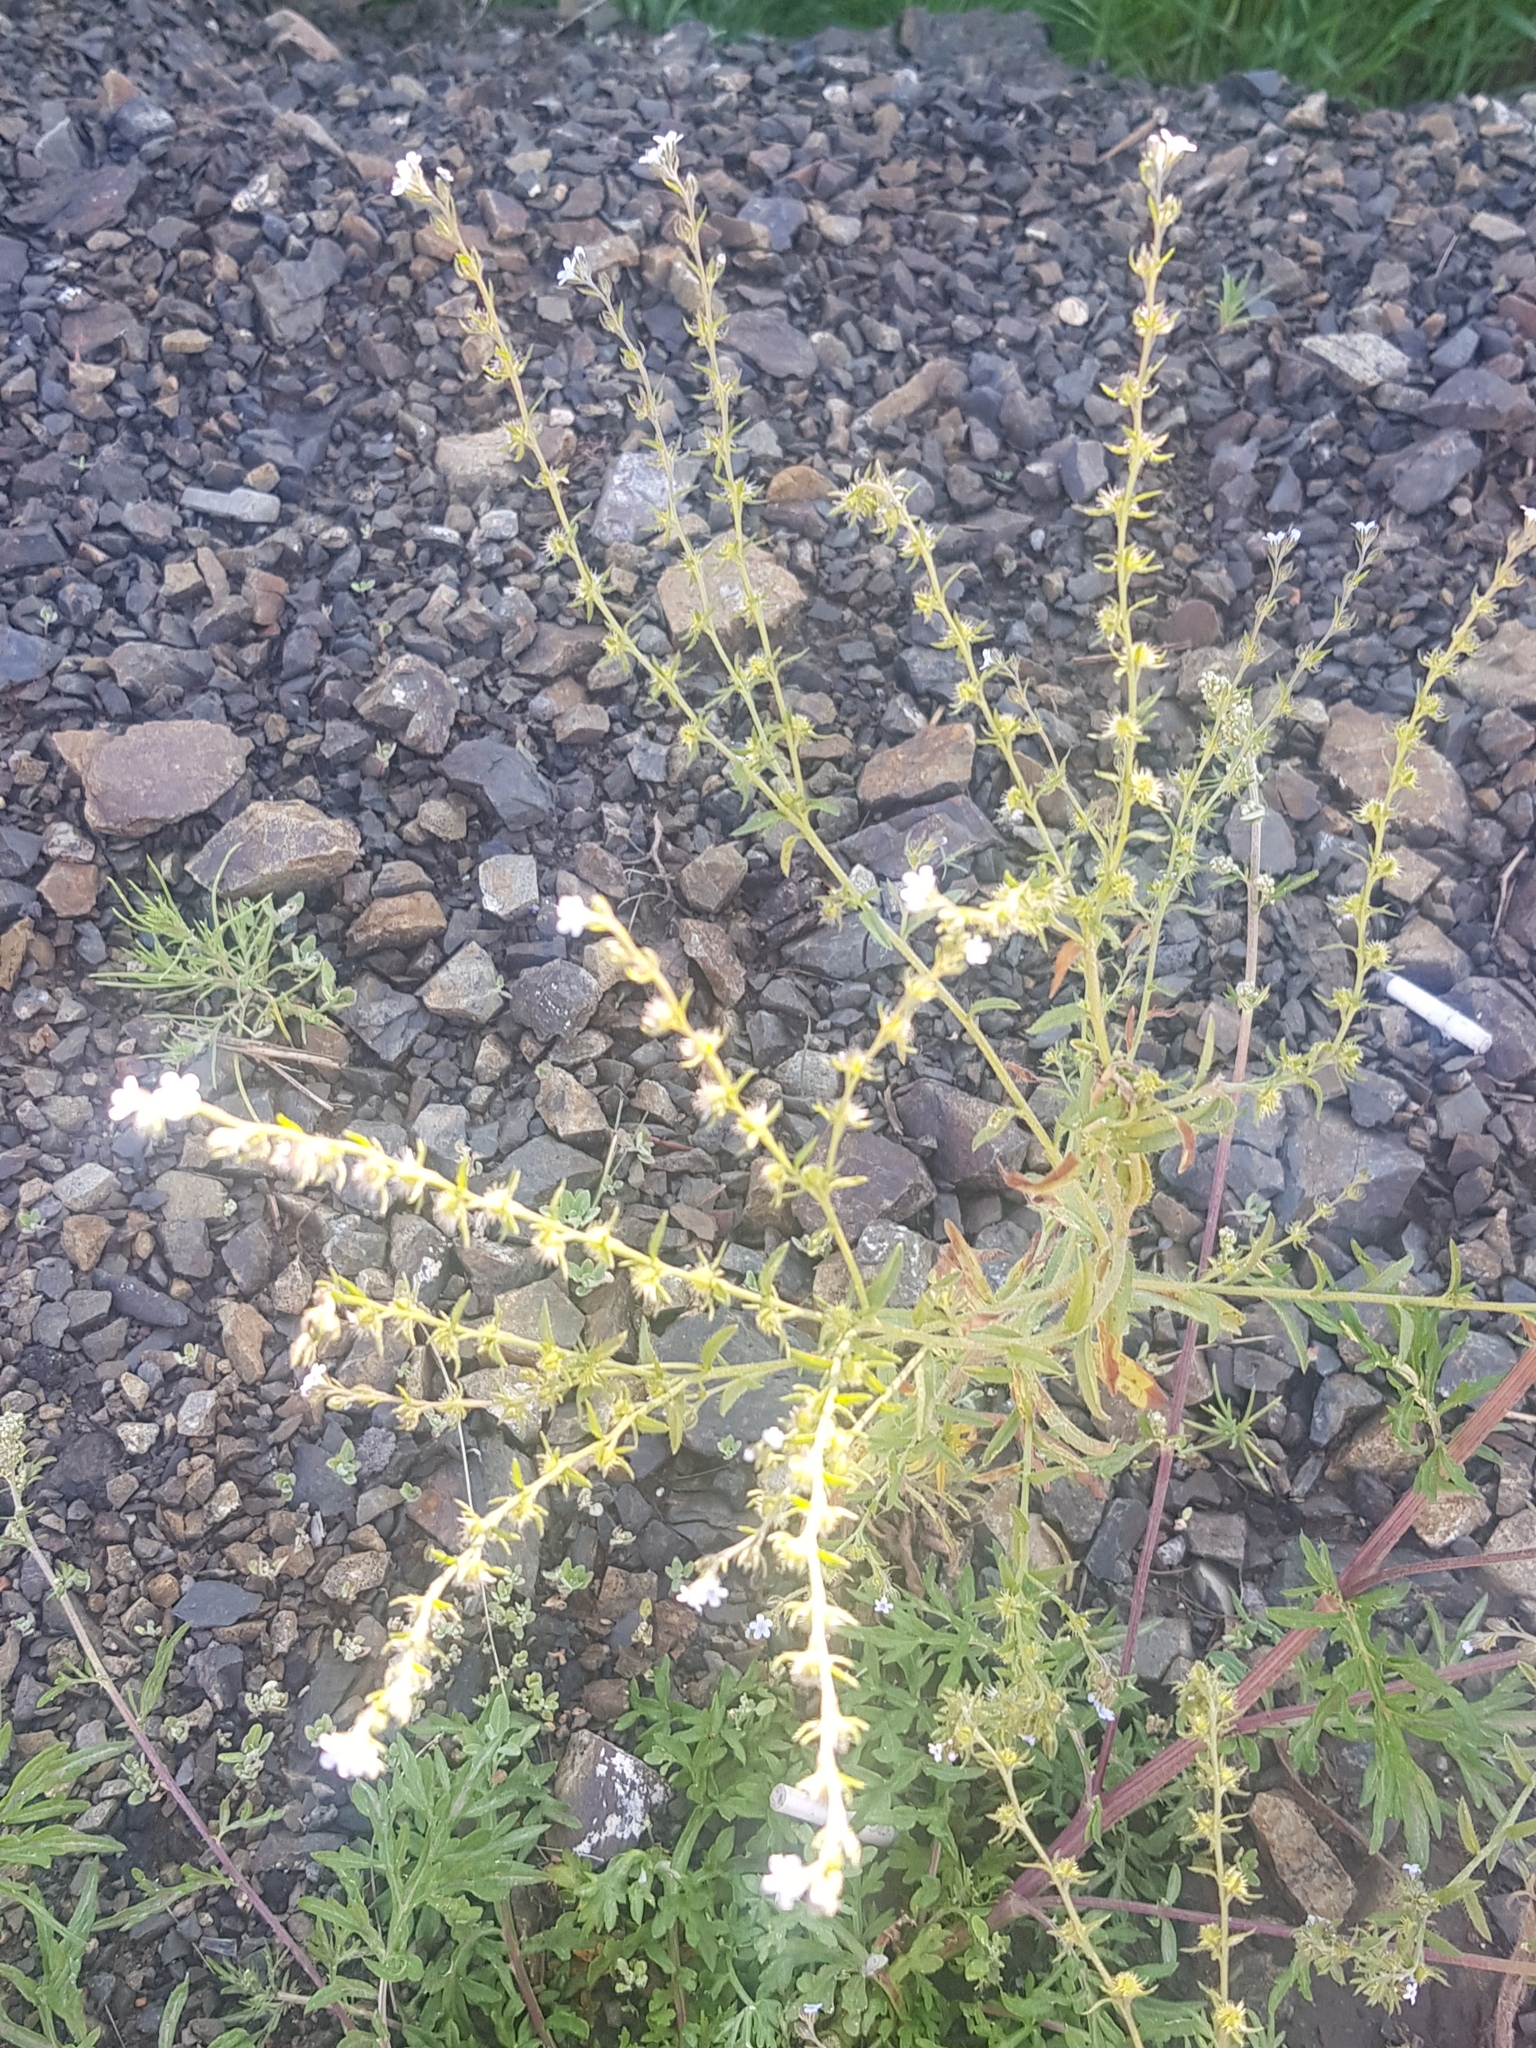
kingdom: Plantae
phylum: Tracheophyta
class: Magnoliopsida
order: Boraginales
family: Boraginaceae
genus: Lappula
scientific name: Lappula squarrosa
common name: European stickseed
